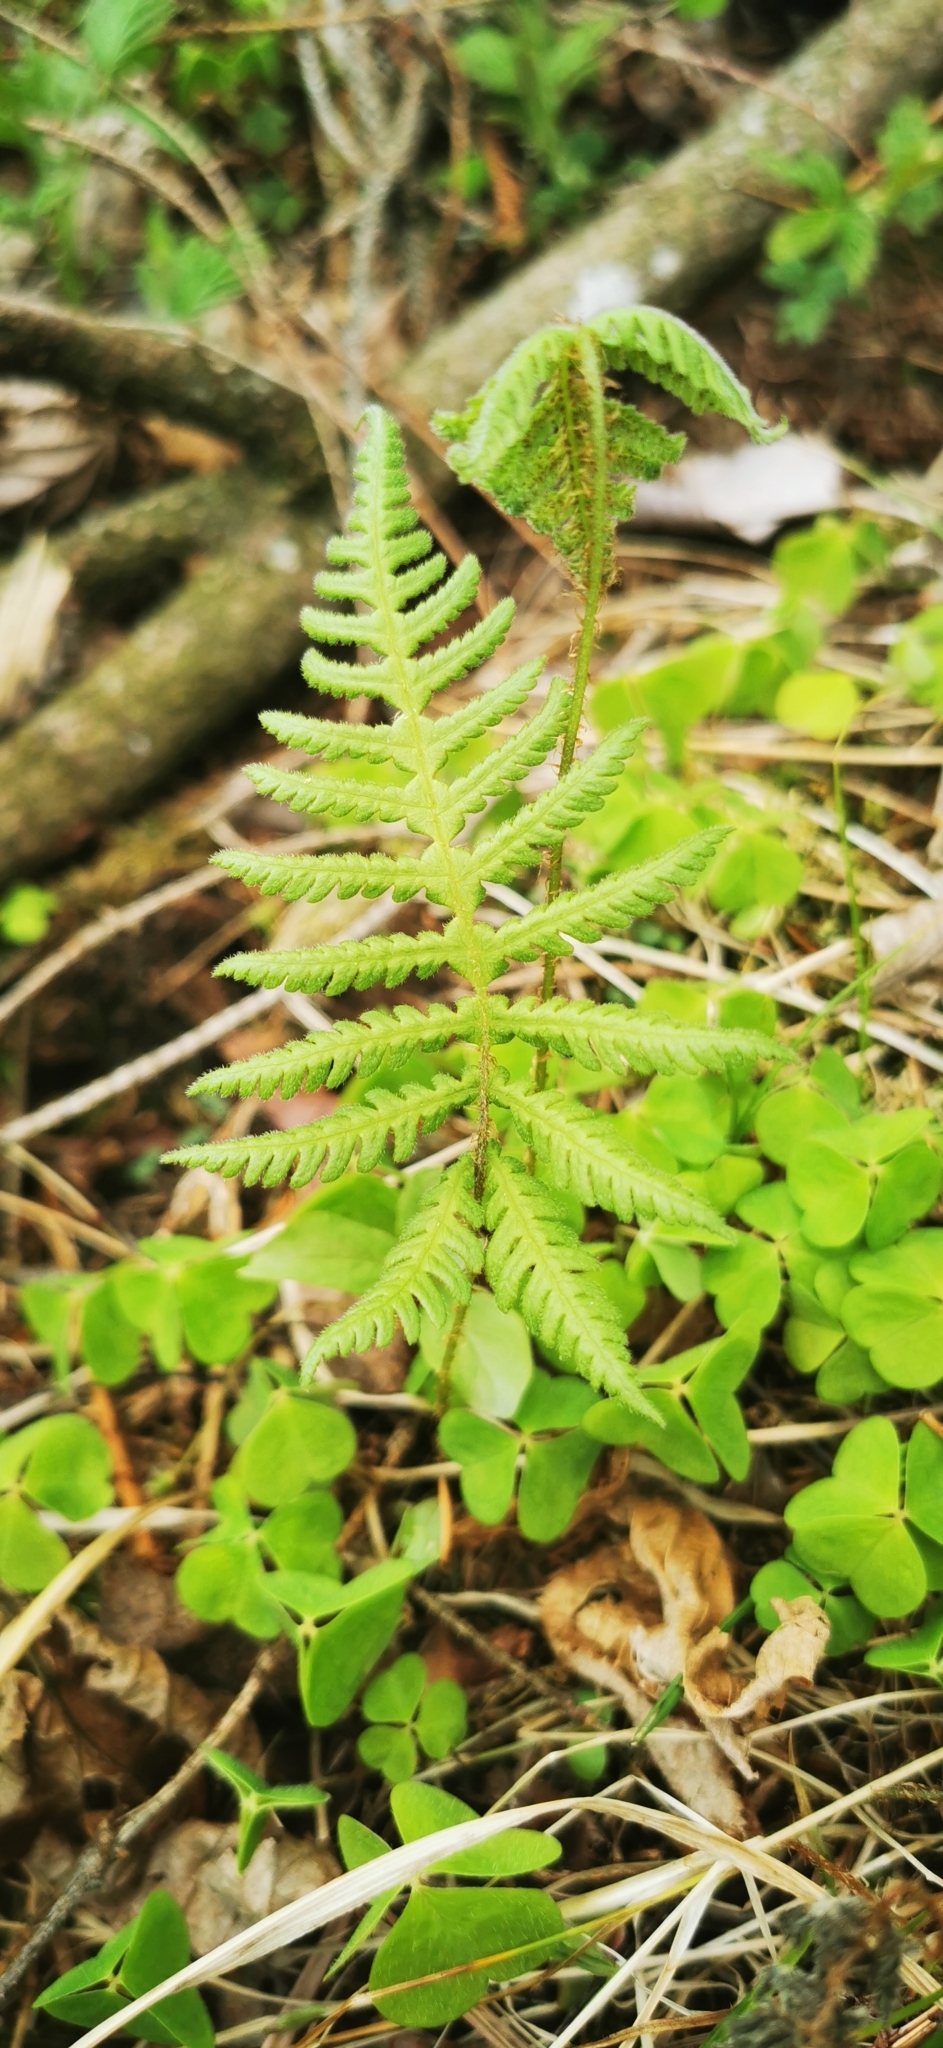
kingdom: Plantae
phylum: Tracheophyta
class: Polypodiopsida
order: Polypodiales
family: Thelypteridaceae
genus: Phegopteris
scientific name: Phegopteris connectilis
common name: Beech fern
